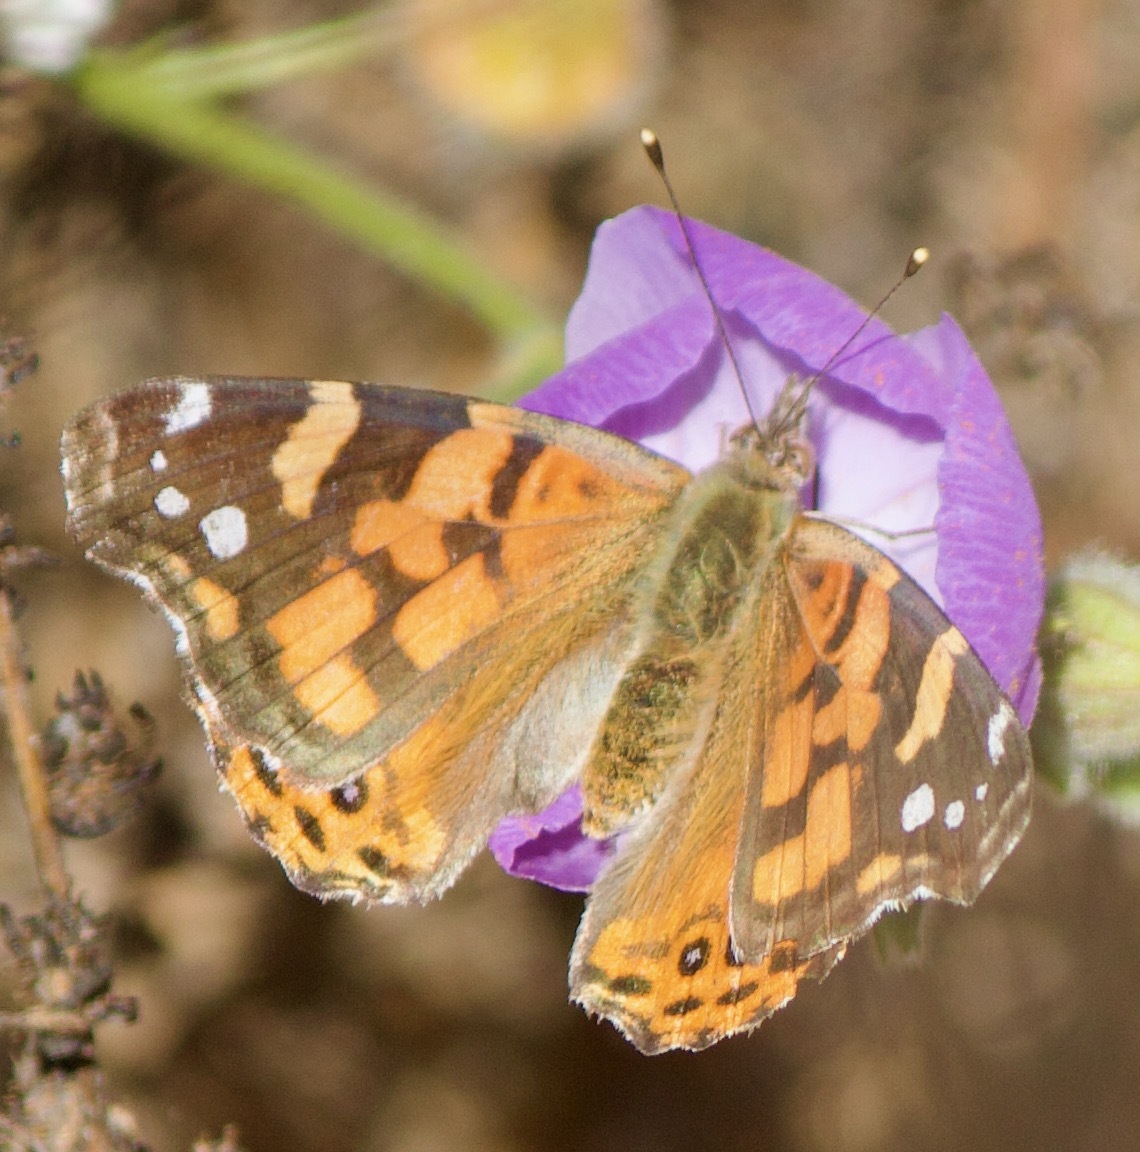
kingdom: Animalia
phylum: Arthropoda
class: Insecta
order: Lepidoptera
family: Nymphalidae
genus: Vanessa
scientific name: Vanessa carye
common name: Subtropical lady
